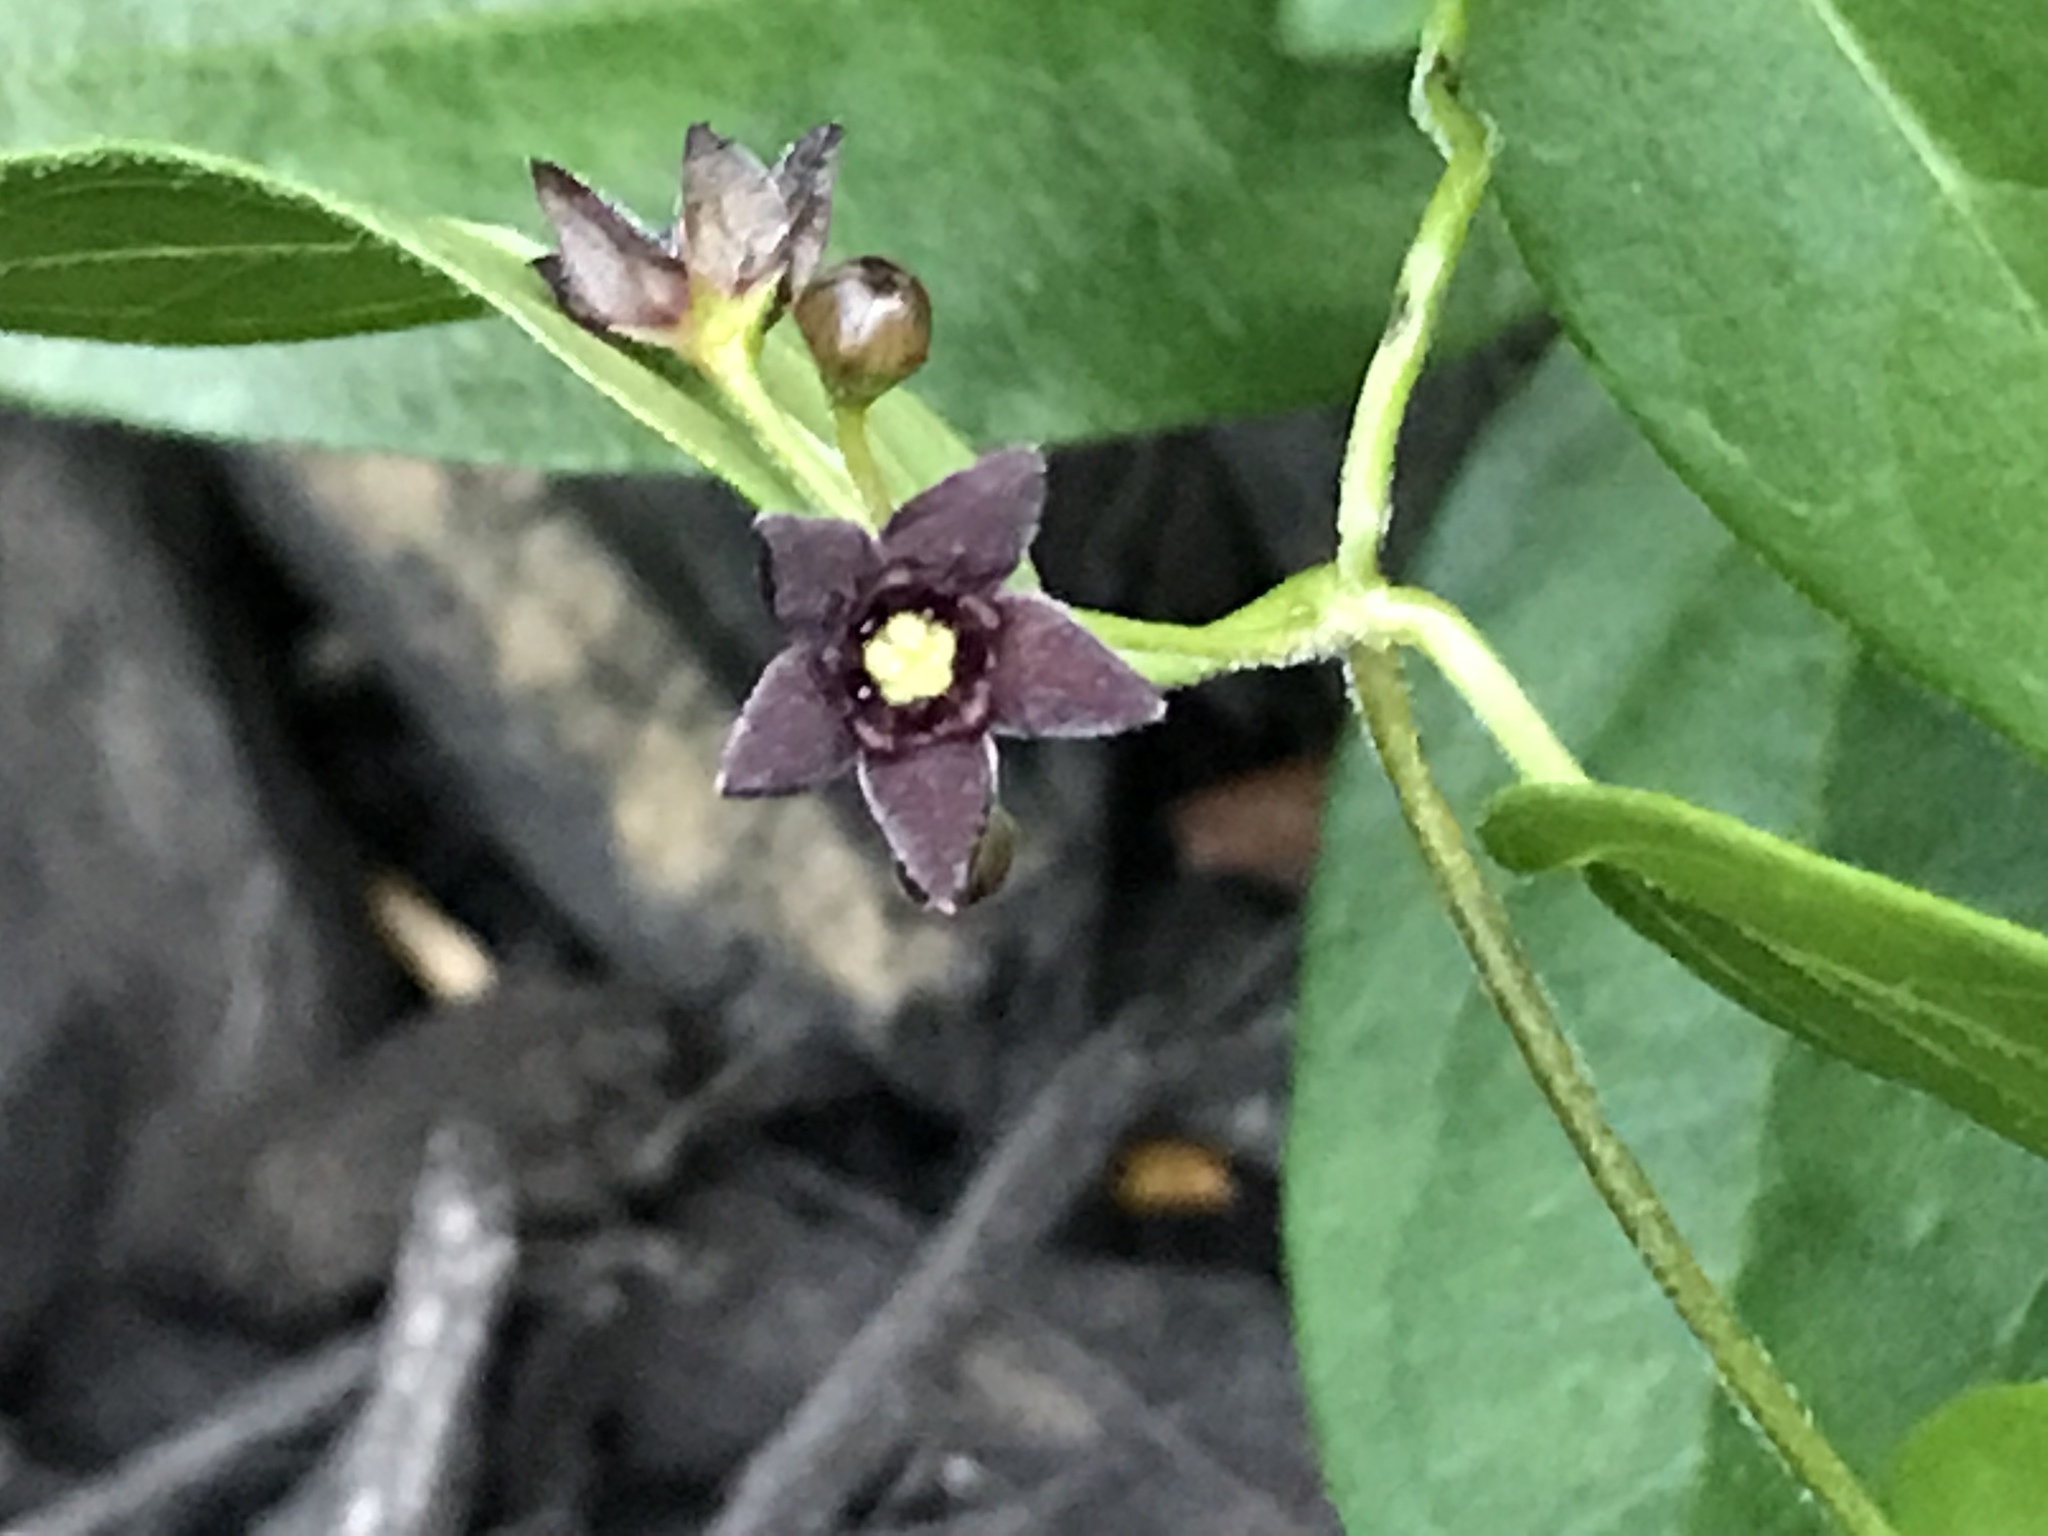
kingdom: Plantae
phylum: Tracheophyta
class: Magnoliopsida
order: Gentianales
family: Apocynaceae
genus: Vincetoxicum
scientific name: Vincetoxicum nigrum
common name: Black swallow-wort
